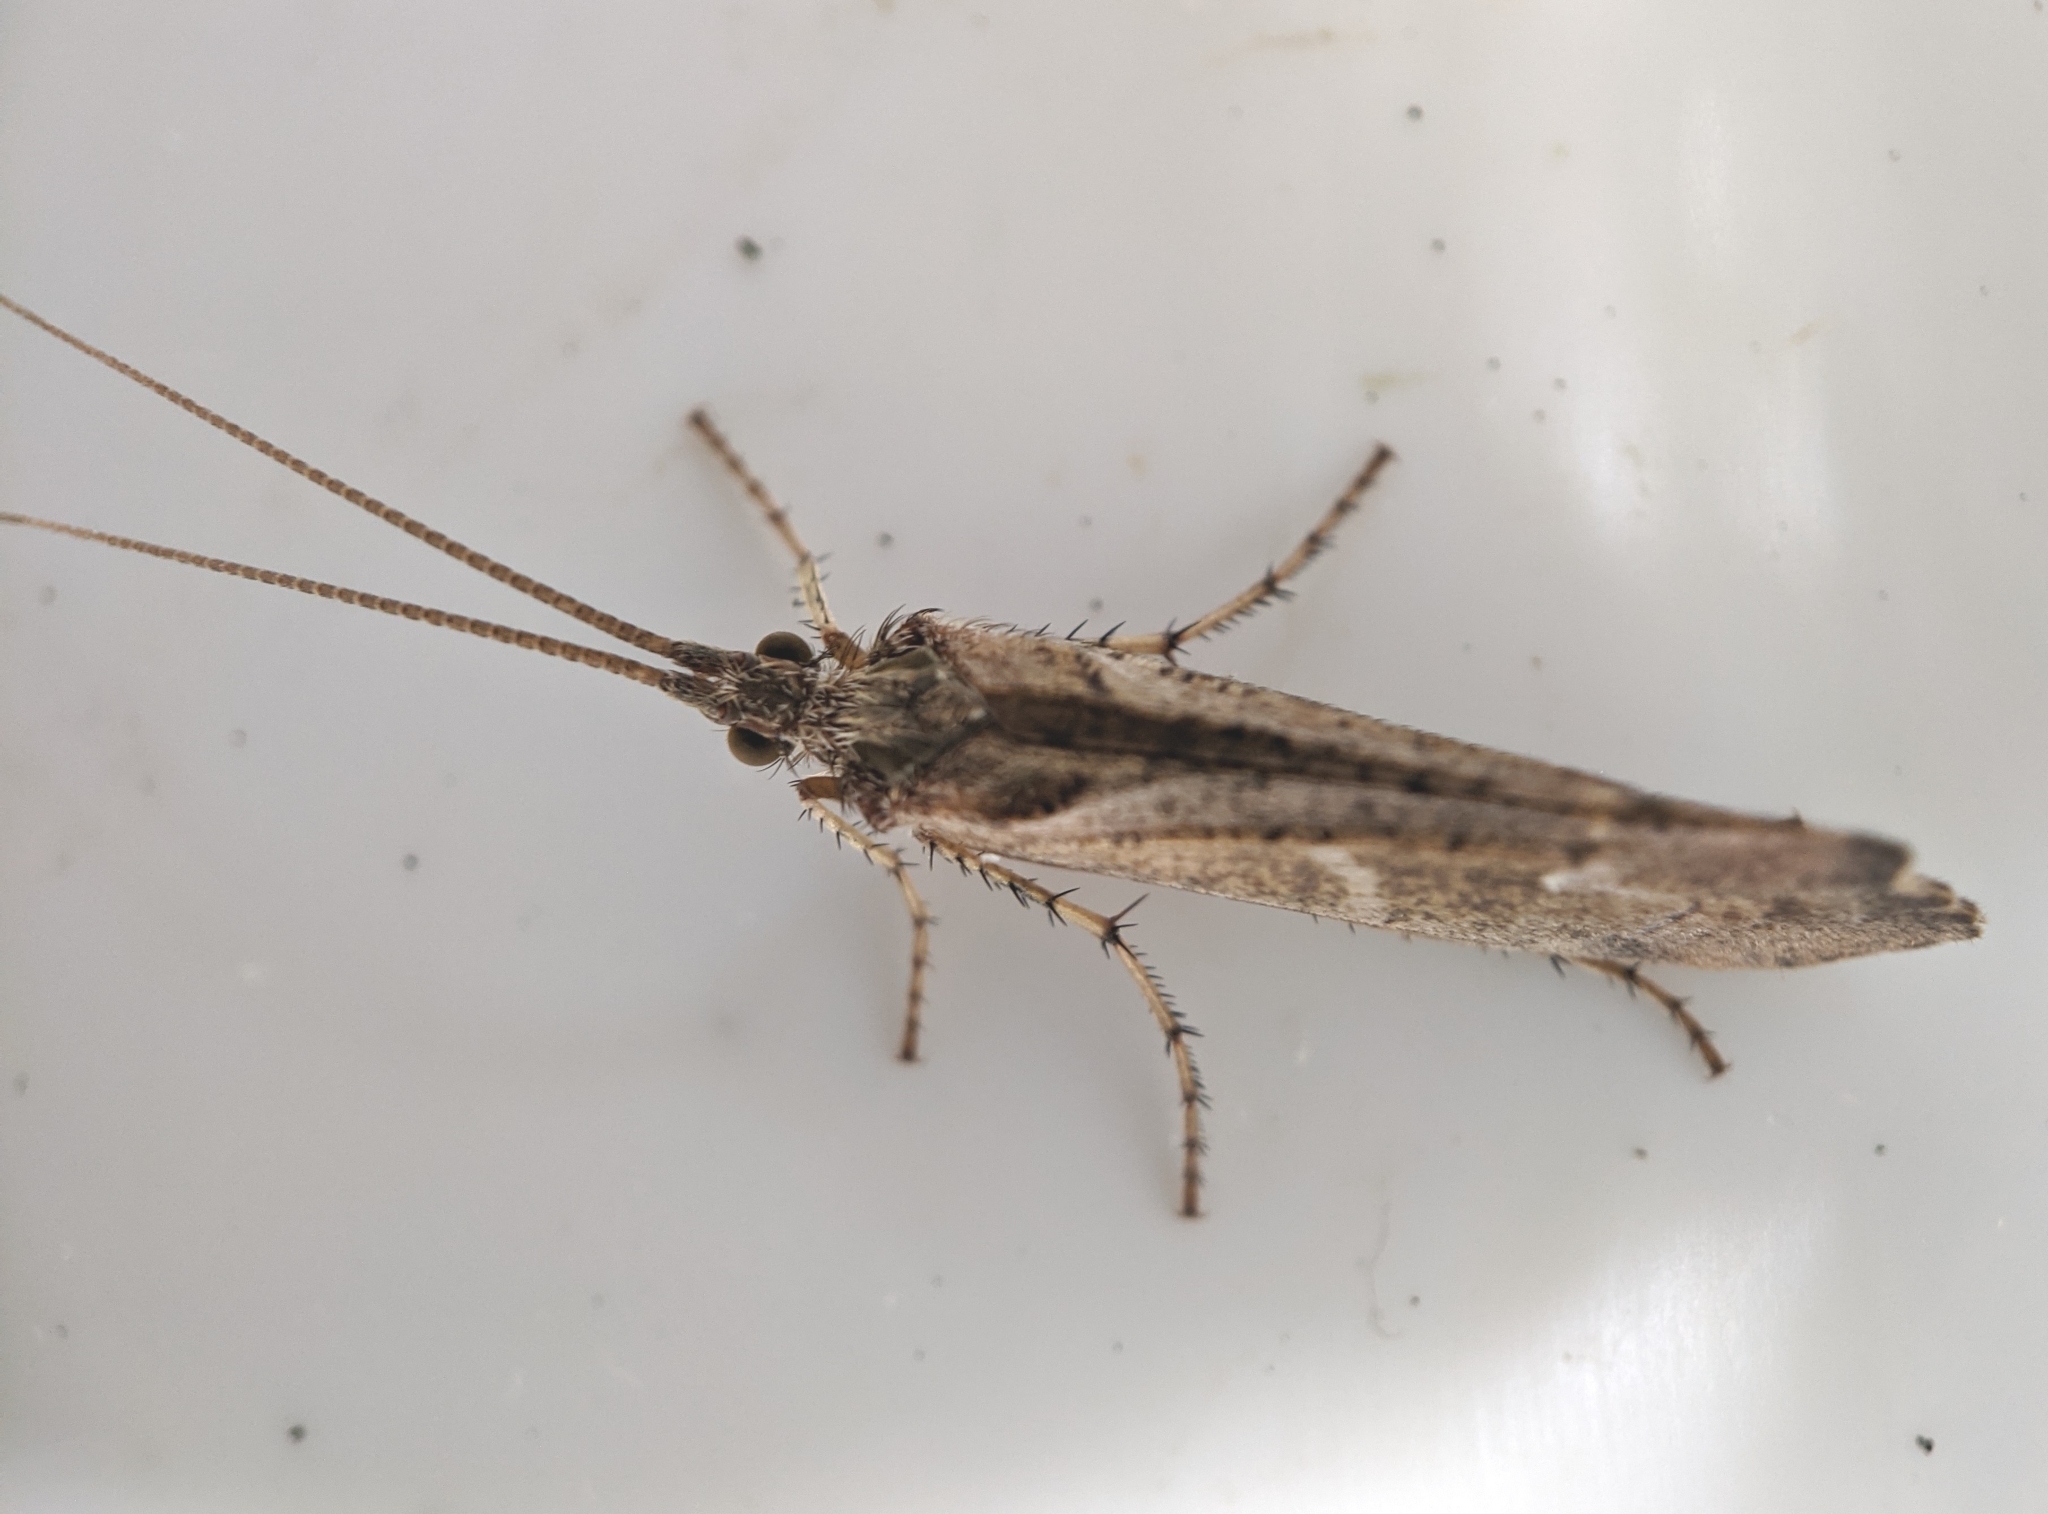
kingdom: Animalia
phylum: Arthropoda
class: Insecta
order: Trichoptera
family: Limnephilidae
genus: Glyphotaelius
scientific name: Glyphotaelius pellucidus
